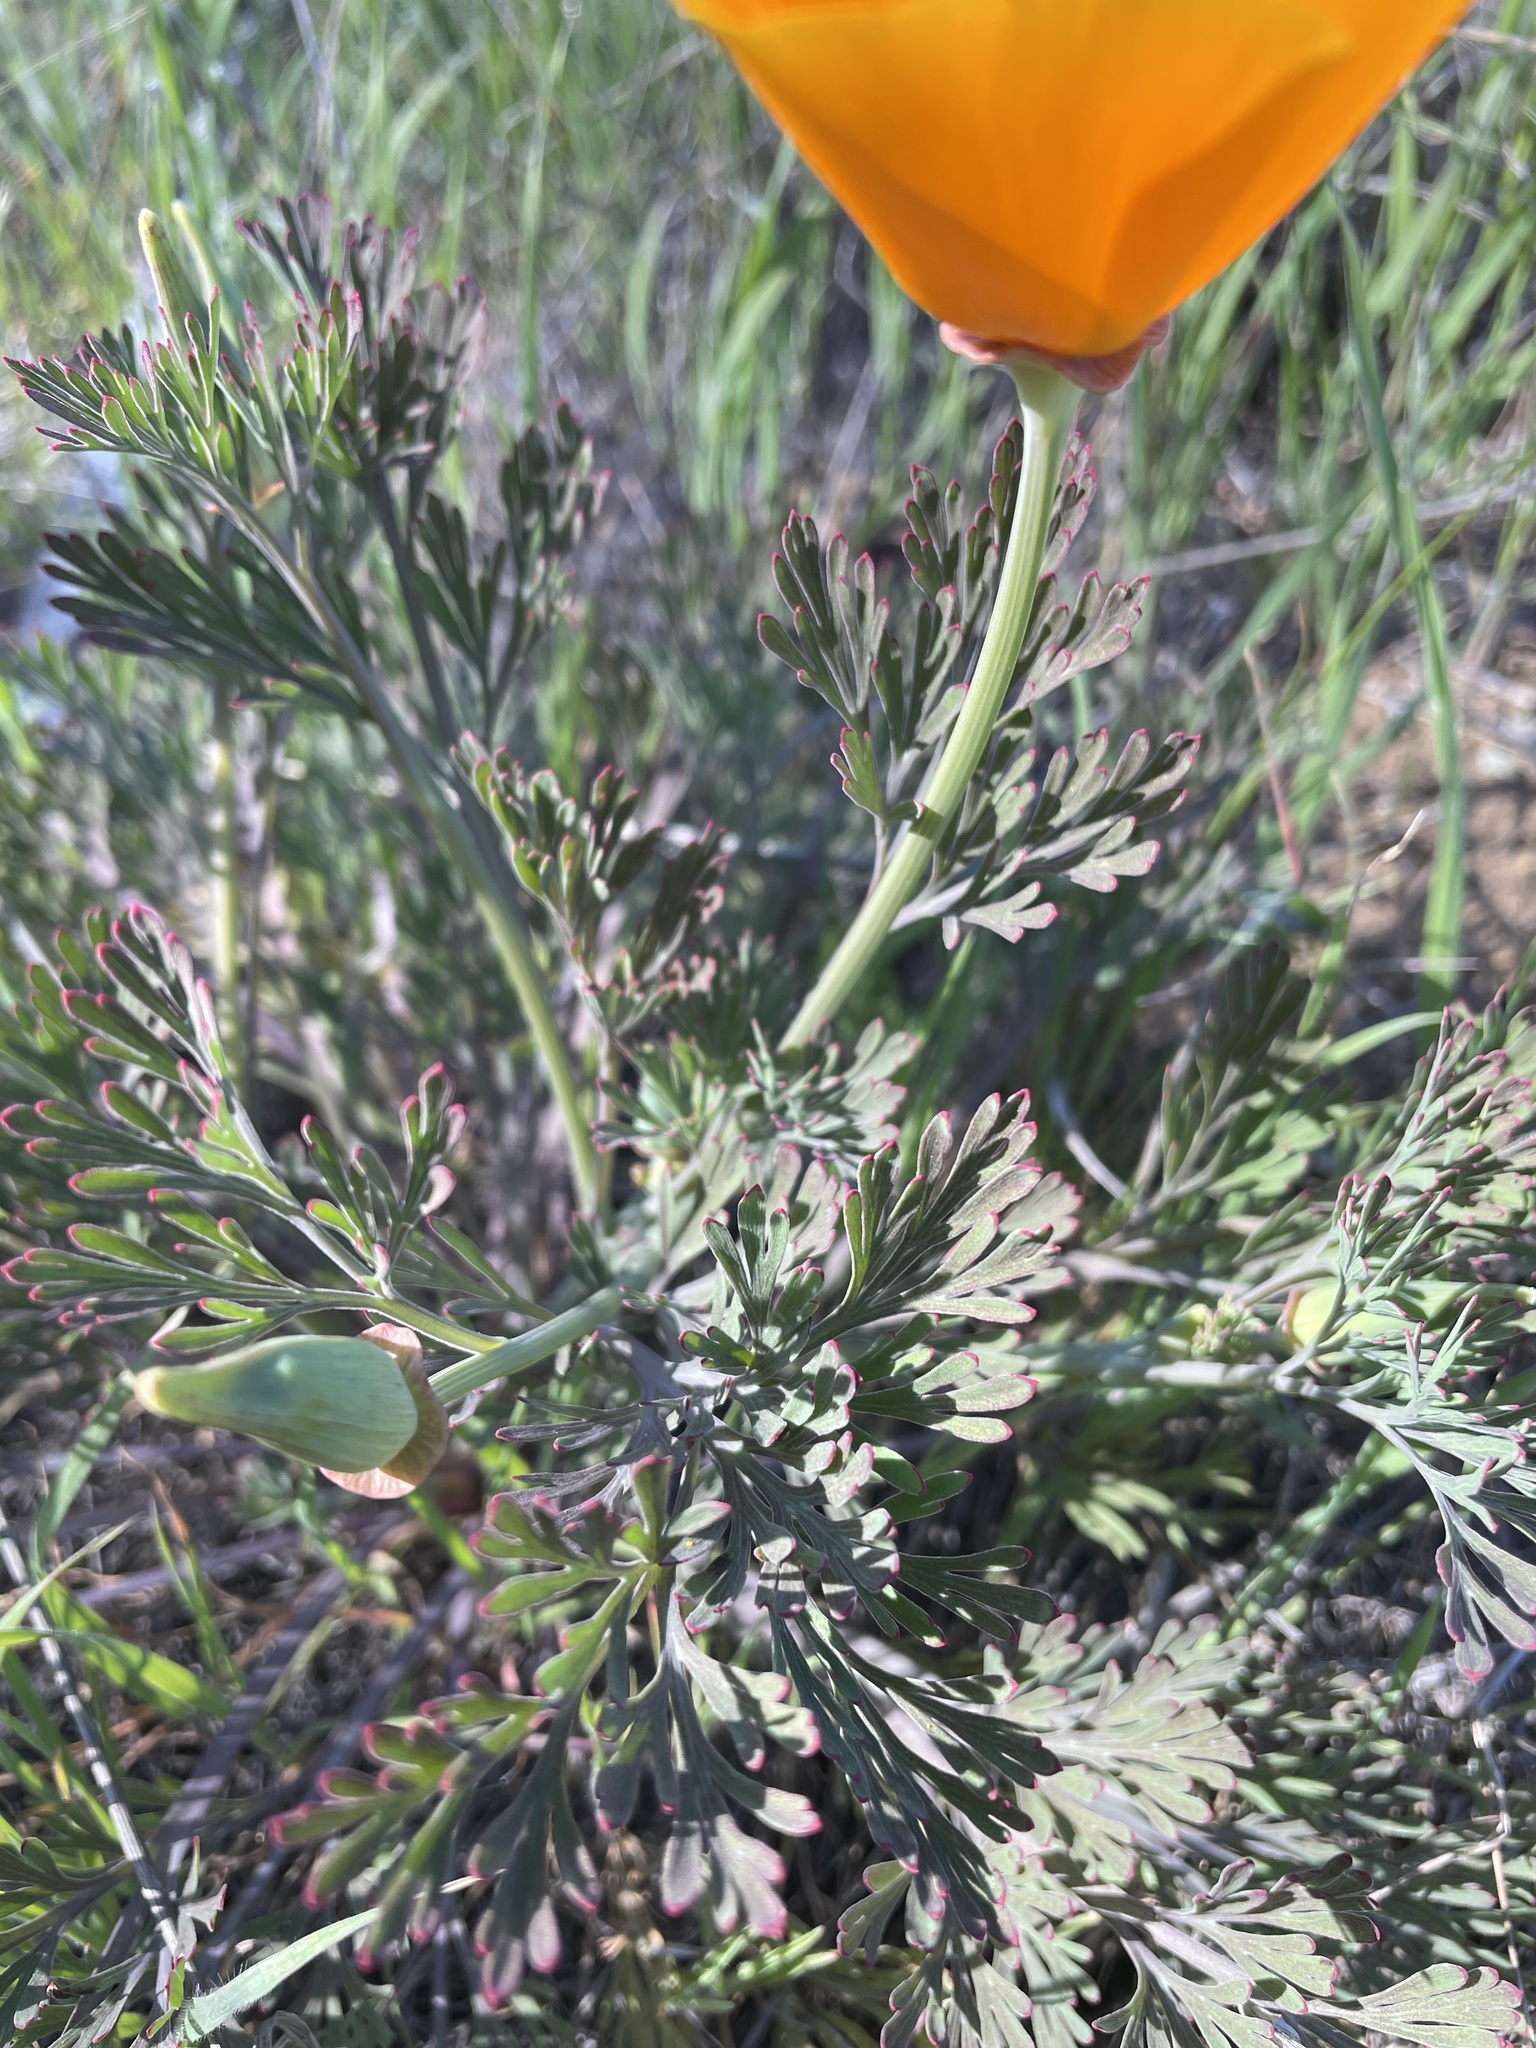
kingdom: Plantae
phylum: Tracheophyta
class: Magnoliopsida
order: Ranunculales
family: Papaveraceae
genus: Eschscholzia
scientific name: Eschscholzia californica
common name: California poppy
